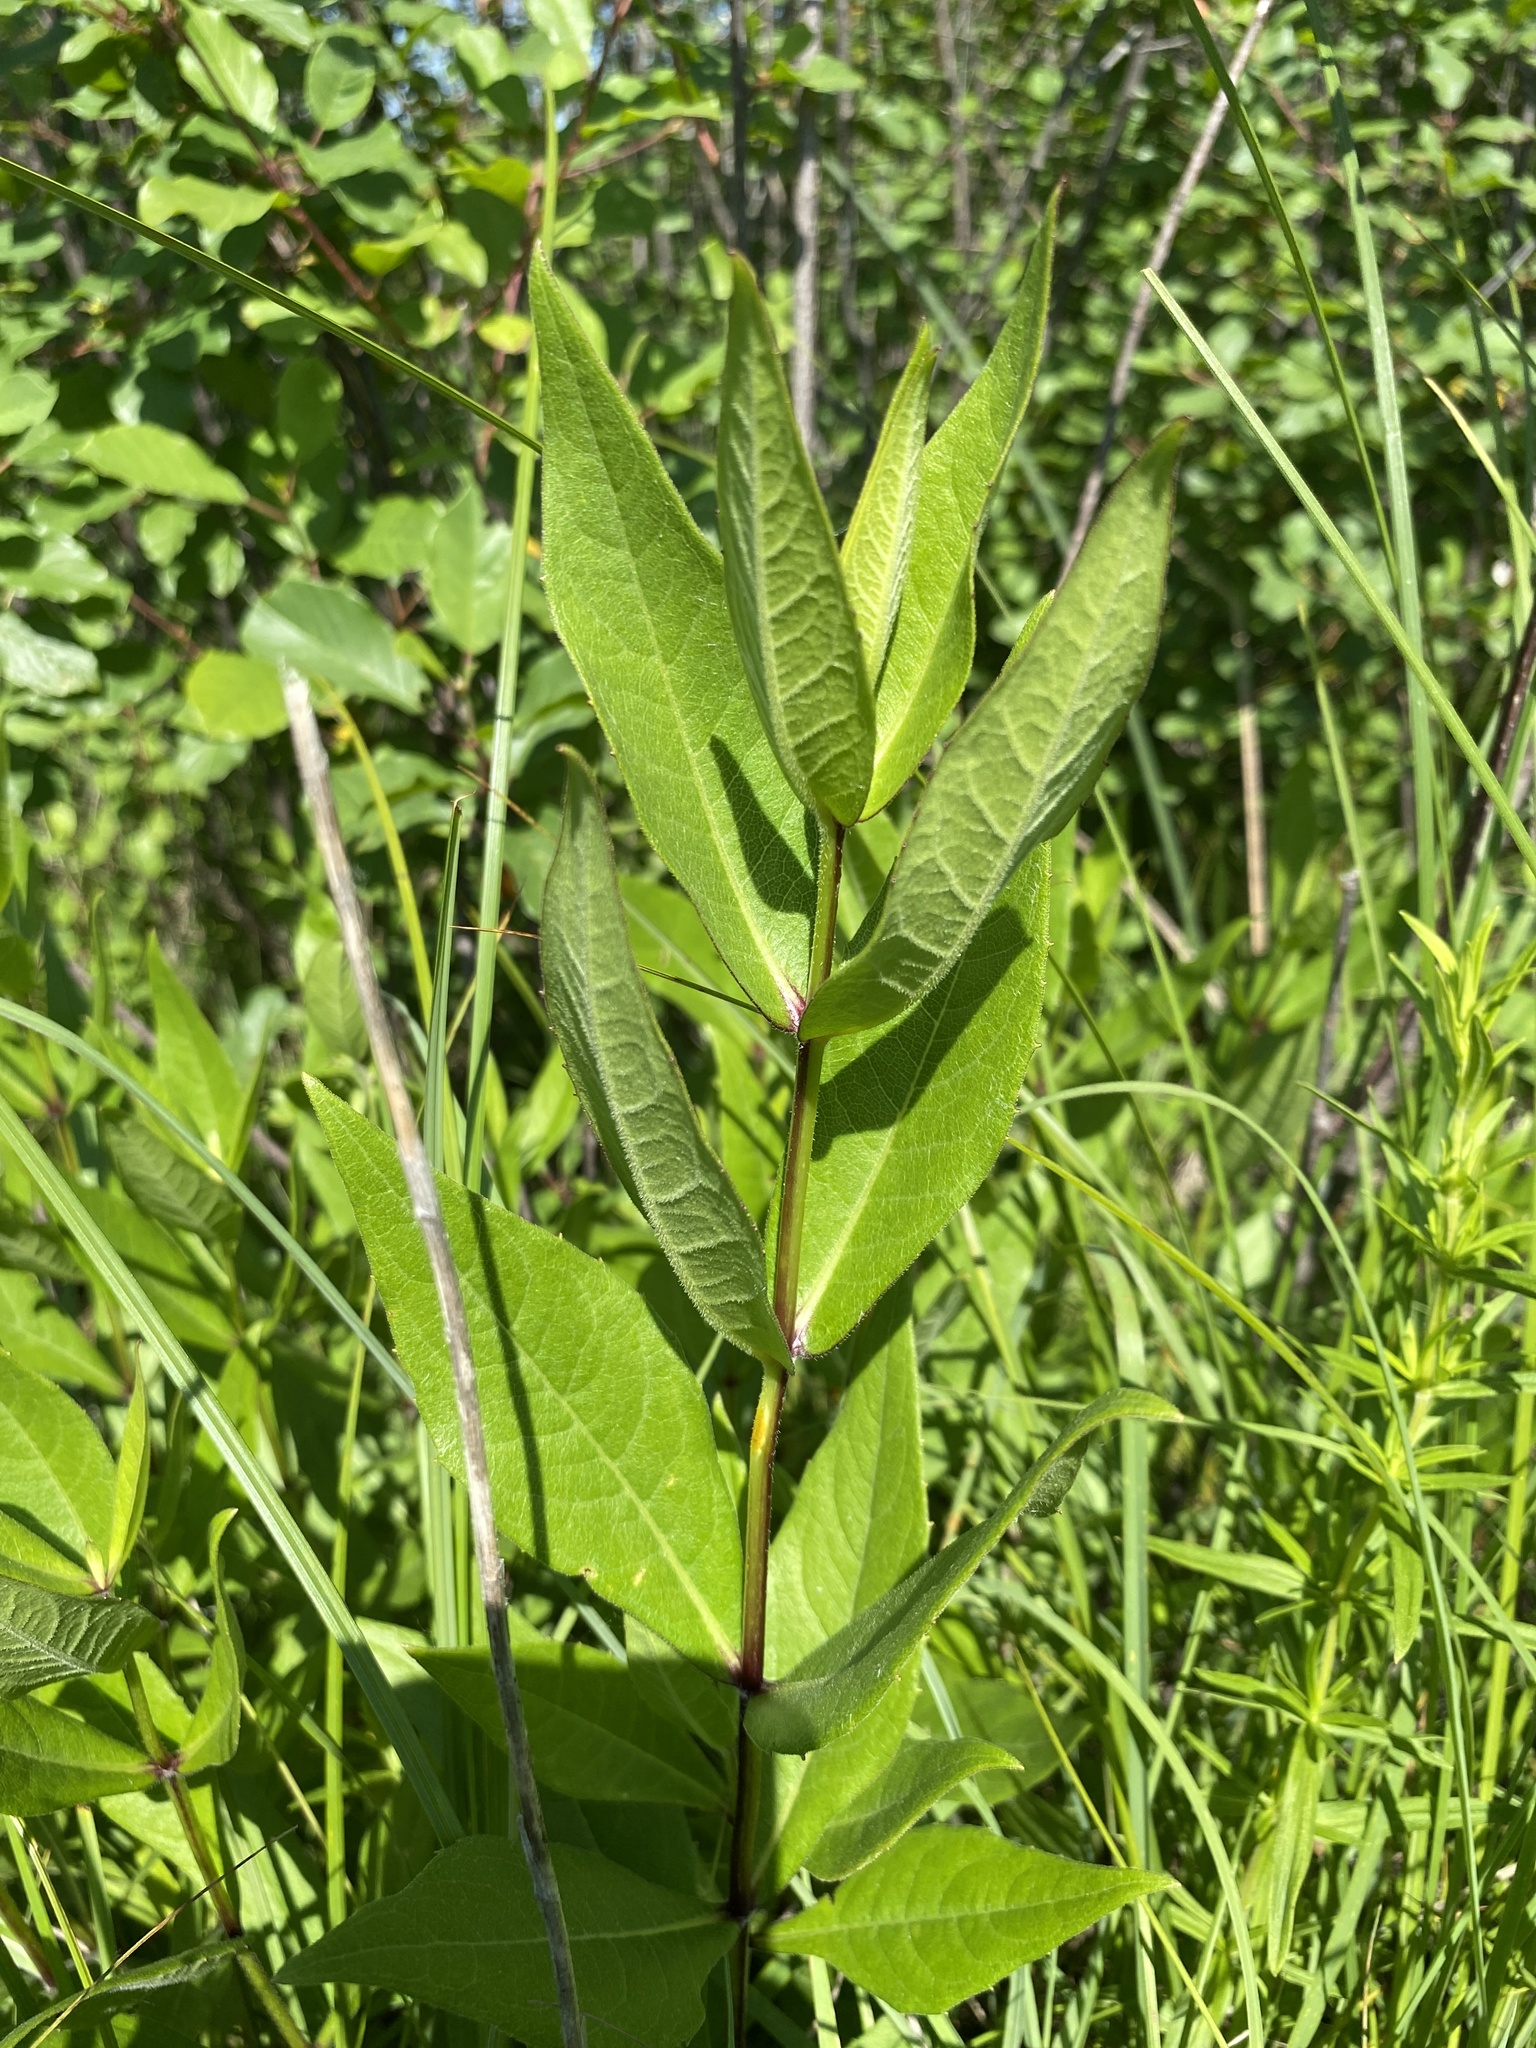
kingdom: Plantae
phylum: Tracheophyta
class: Magnoliopsida
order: Asterales
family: Asteraceae
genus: Silphium
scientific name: Silphium integrifolium
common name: Whole-leaf rosinweed
